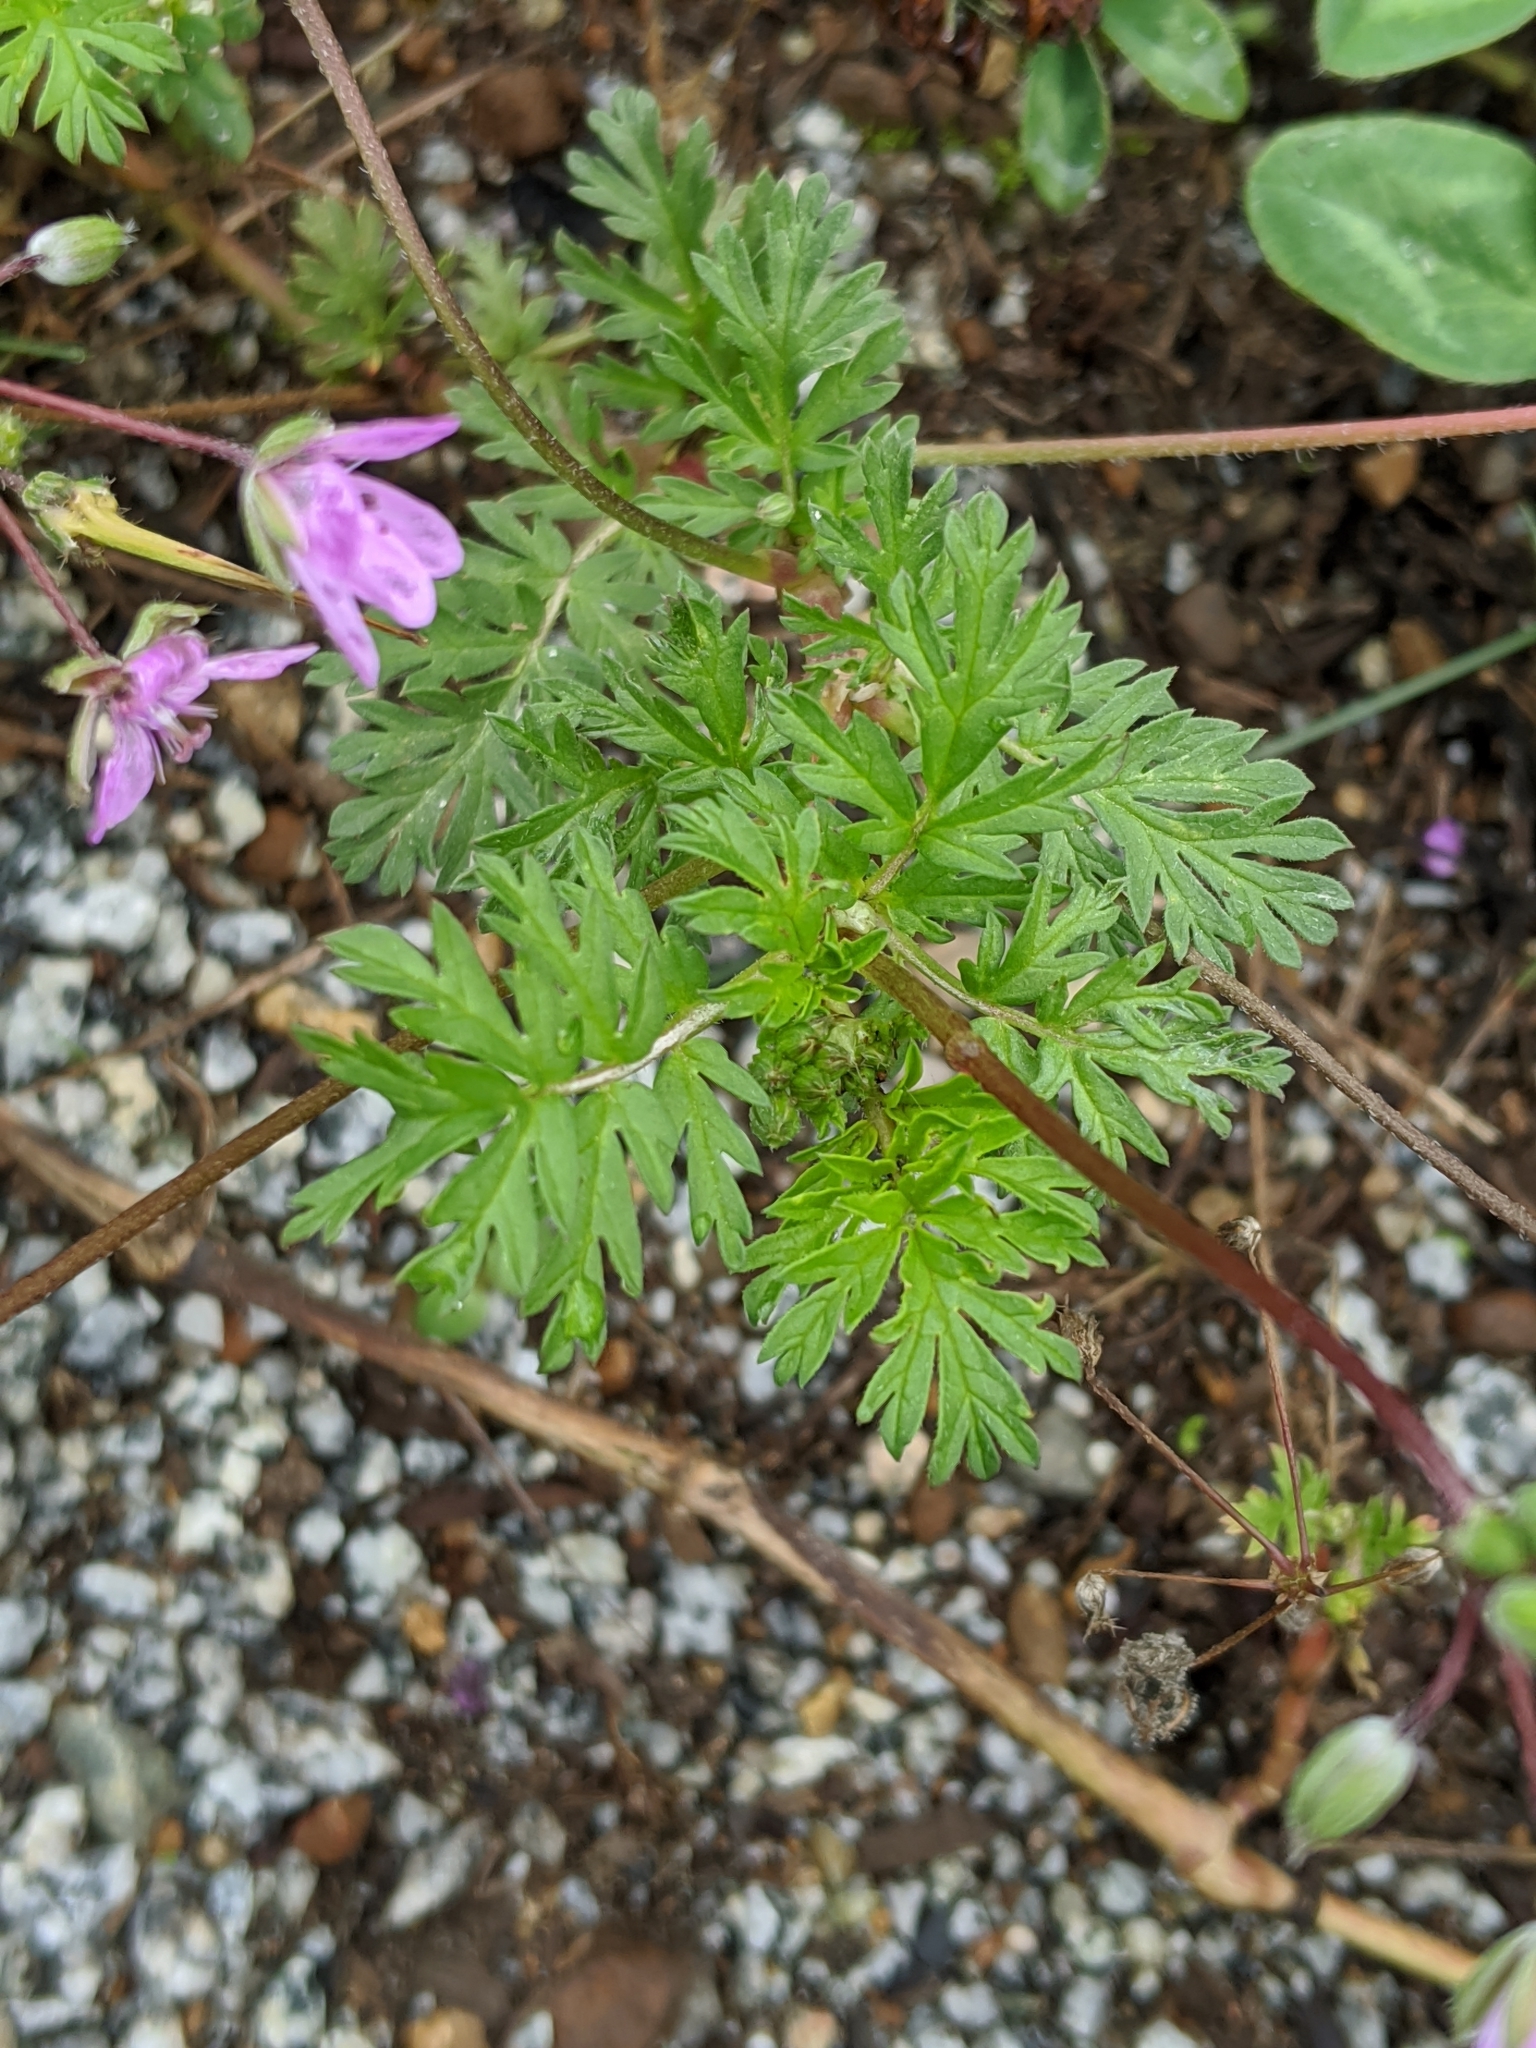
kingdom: Plantae
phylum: Tracheophyta
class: Magnoliopsida
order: Geraniales
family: Geraniaceae
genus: Erodium
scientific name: Erodium cicutarium
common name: Common stork's-bill
